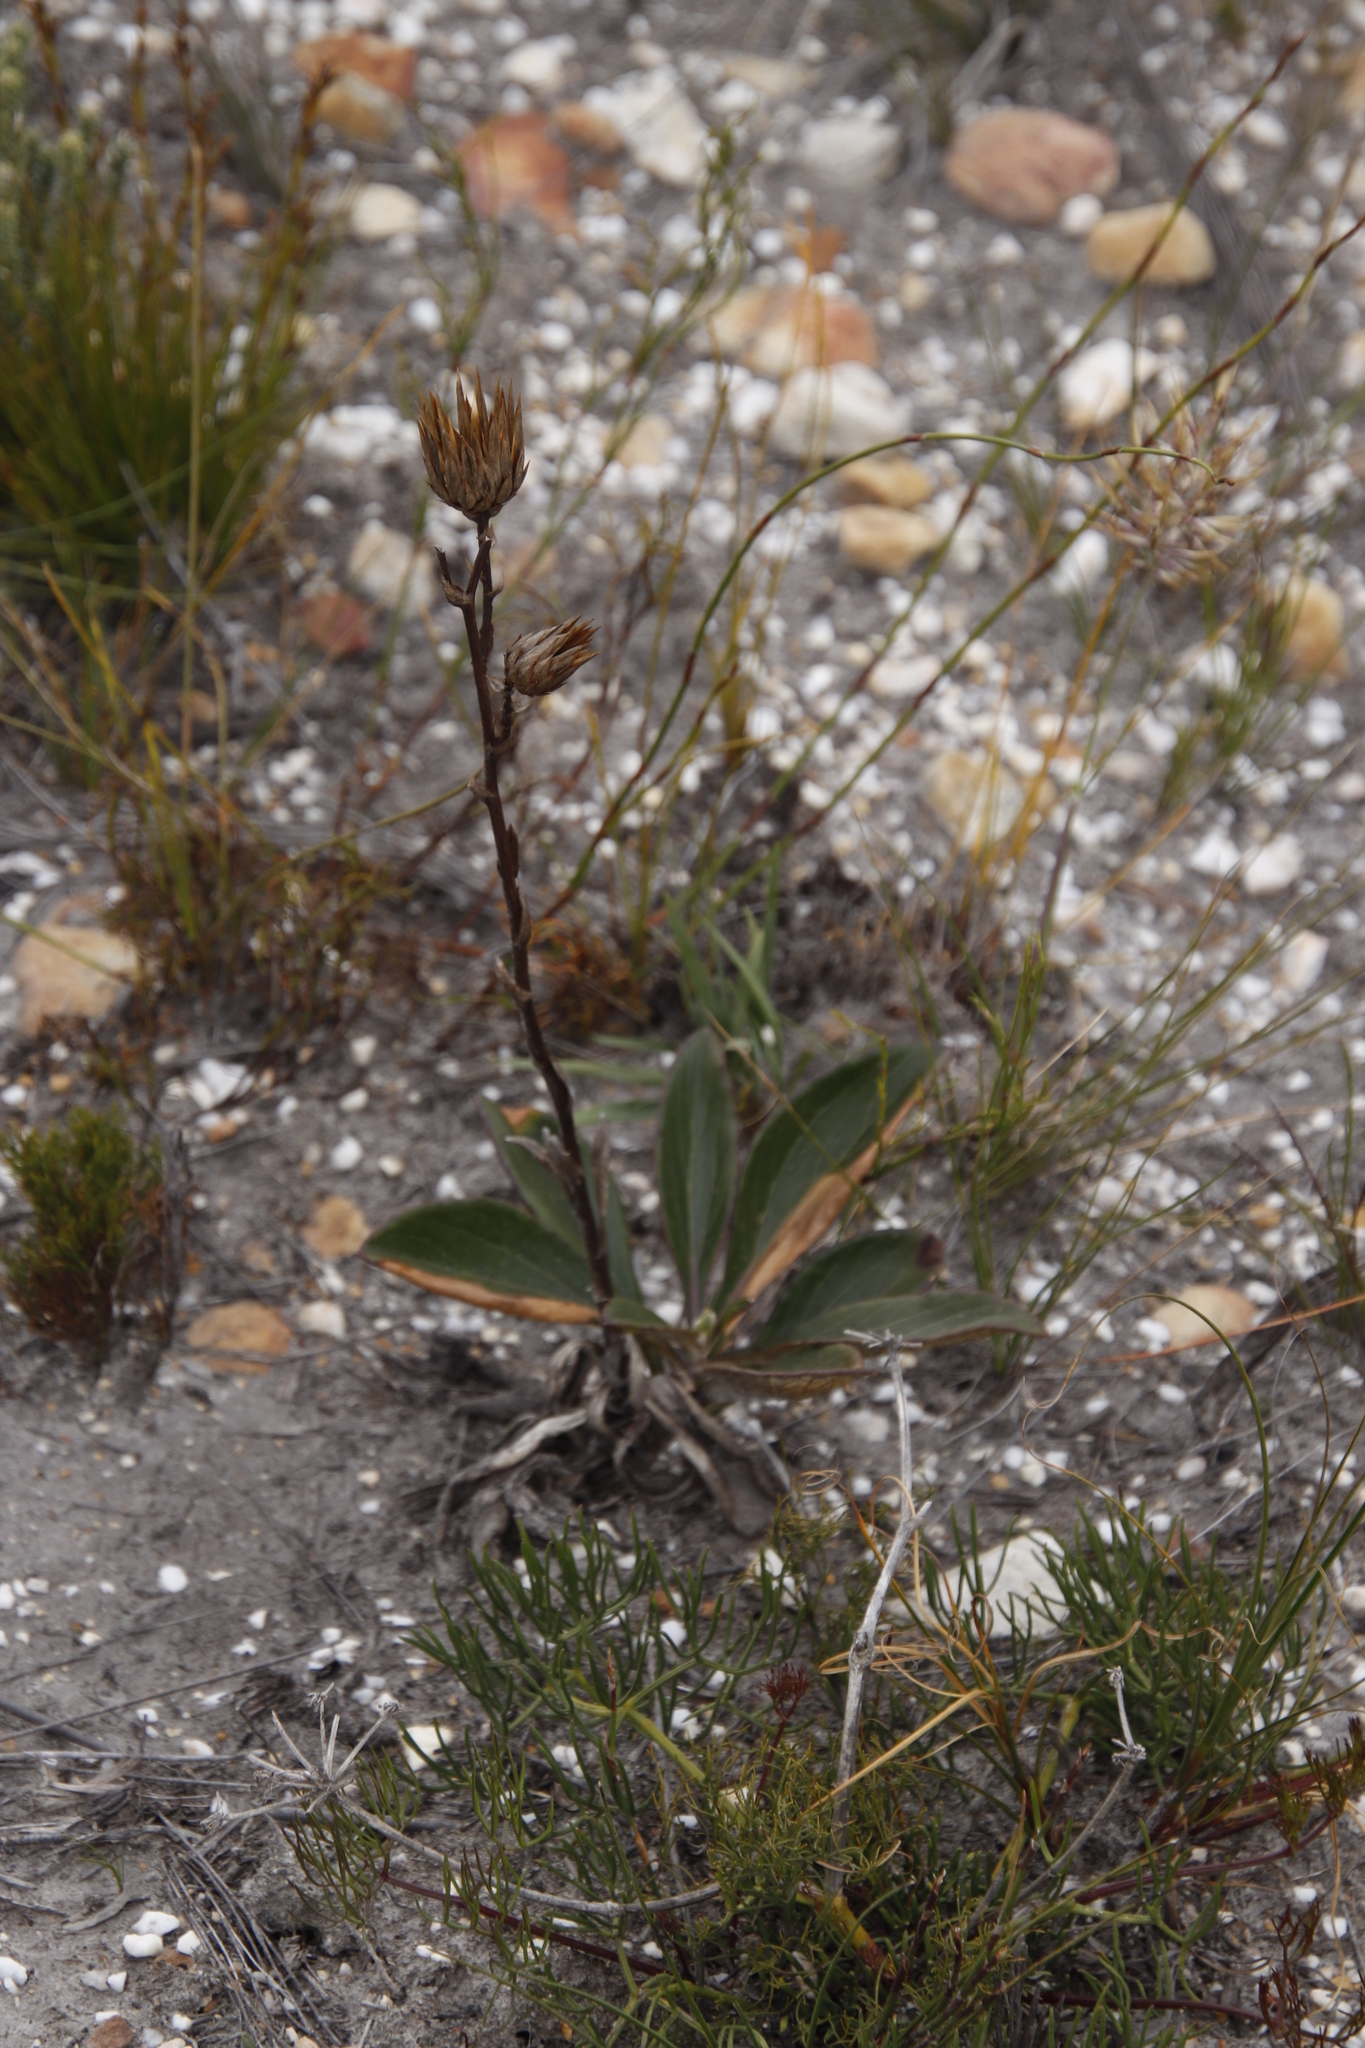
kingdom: Plantae
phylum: Tracheophyta
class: Magnoliopsida
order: Asterales
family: Asteraceae
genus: Berkheya
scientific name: Berkheya herbacea
